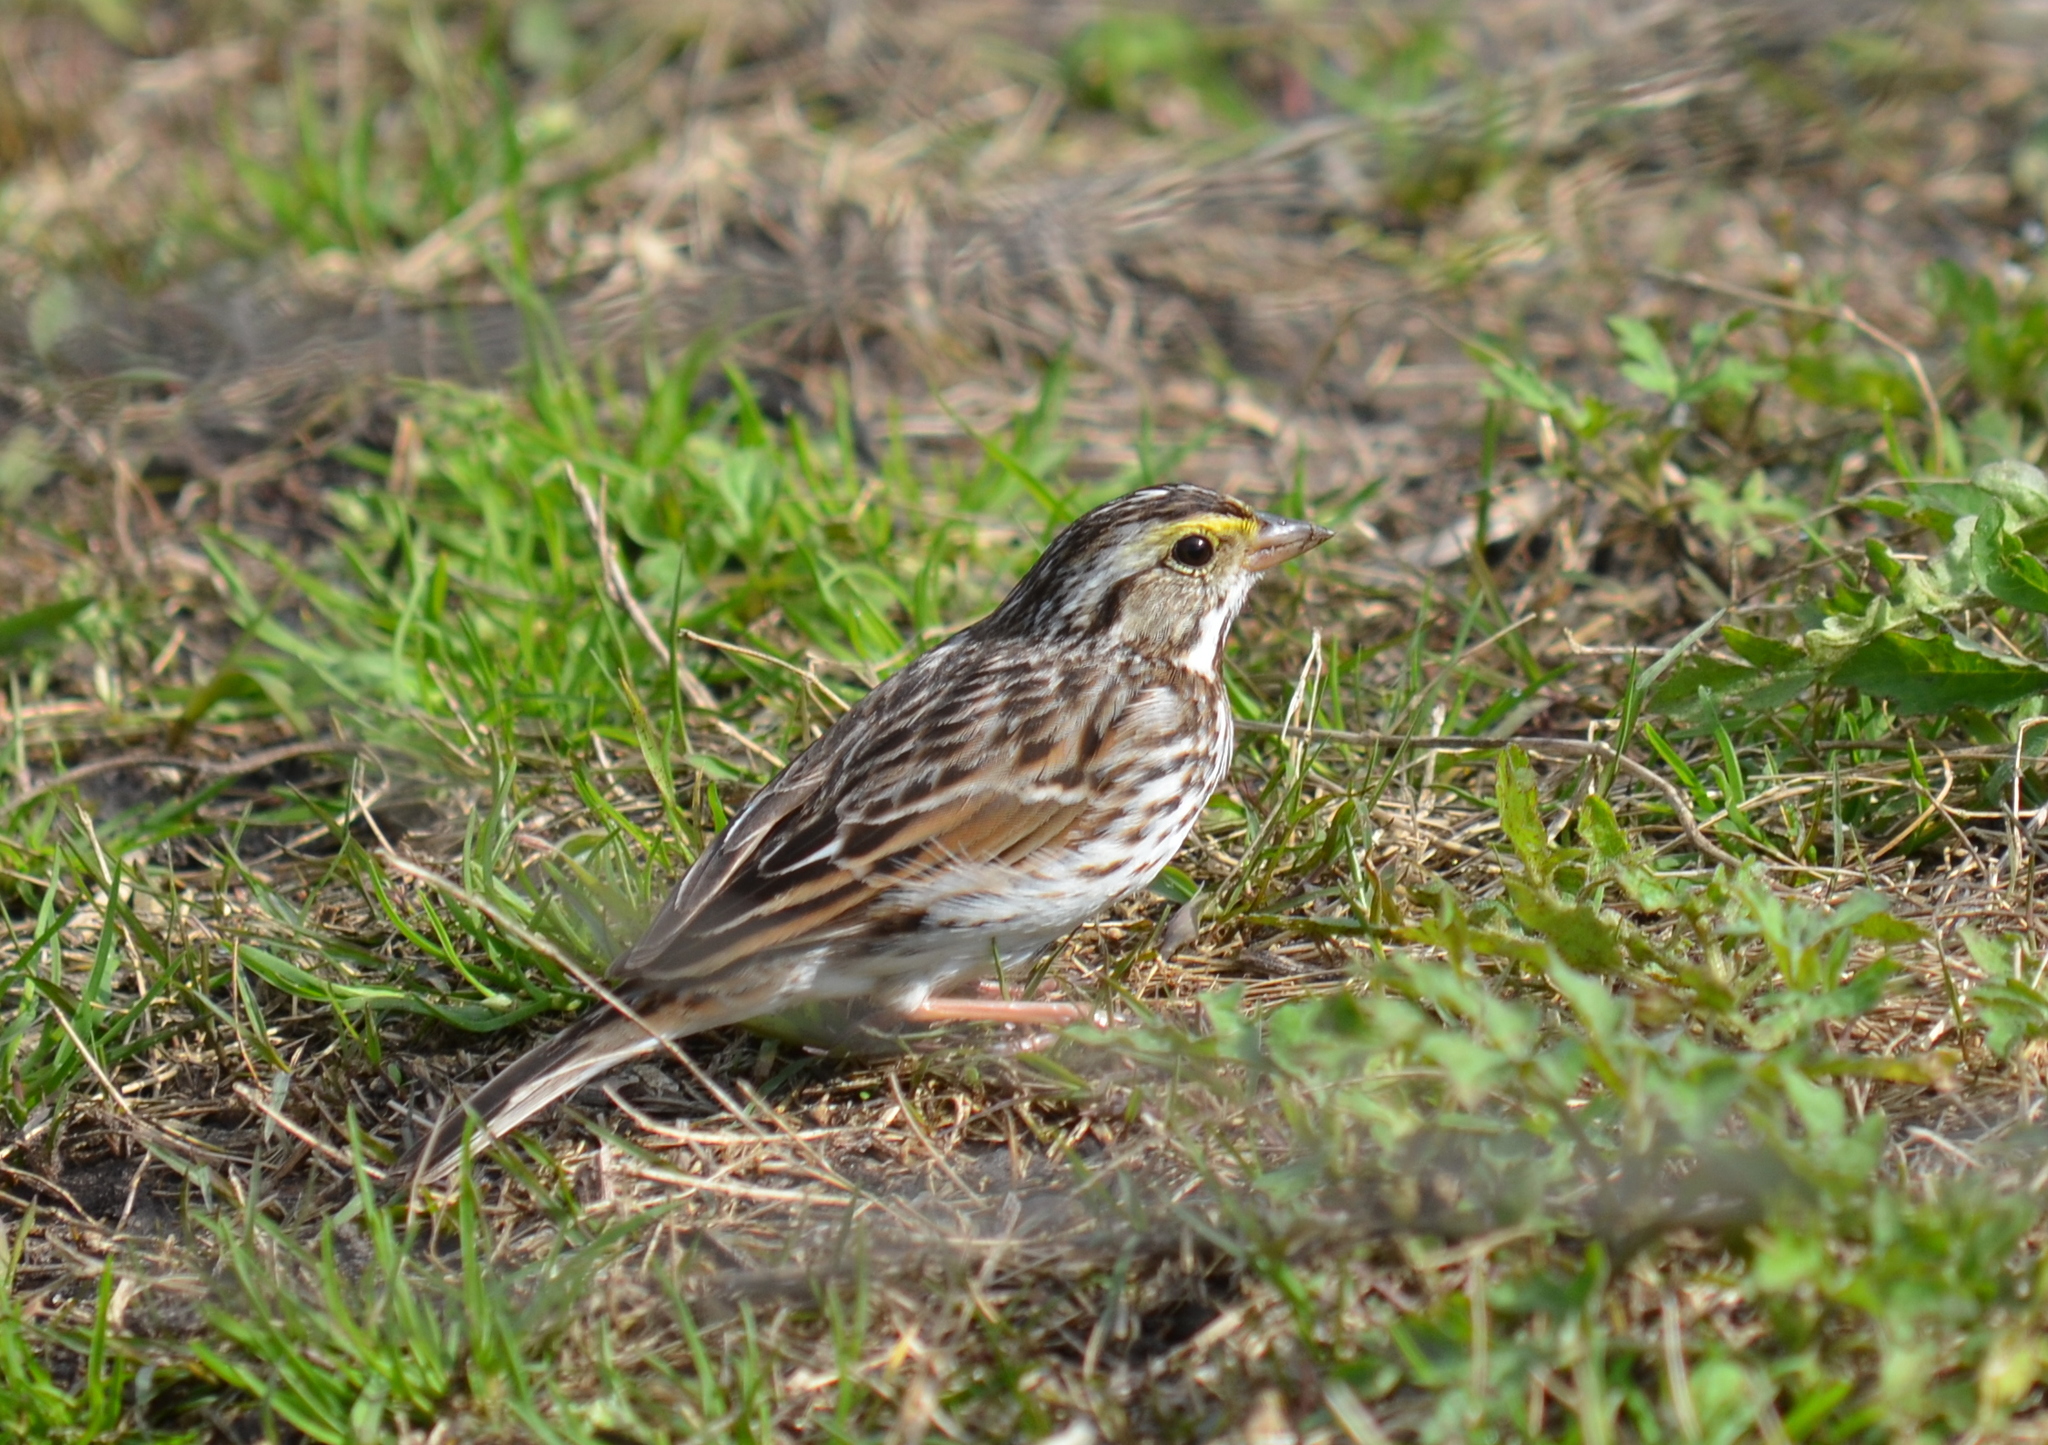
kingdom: Animalia
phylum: Chordata
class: Aves
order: Passeriformes
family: Passerellidae
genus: Passerculus
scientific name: Passerculus sandwichensis
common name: Savannah sparrow
